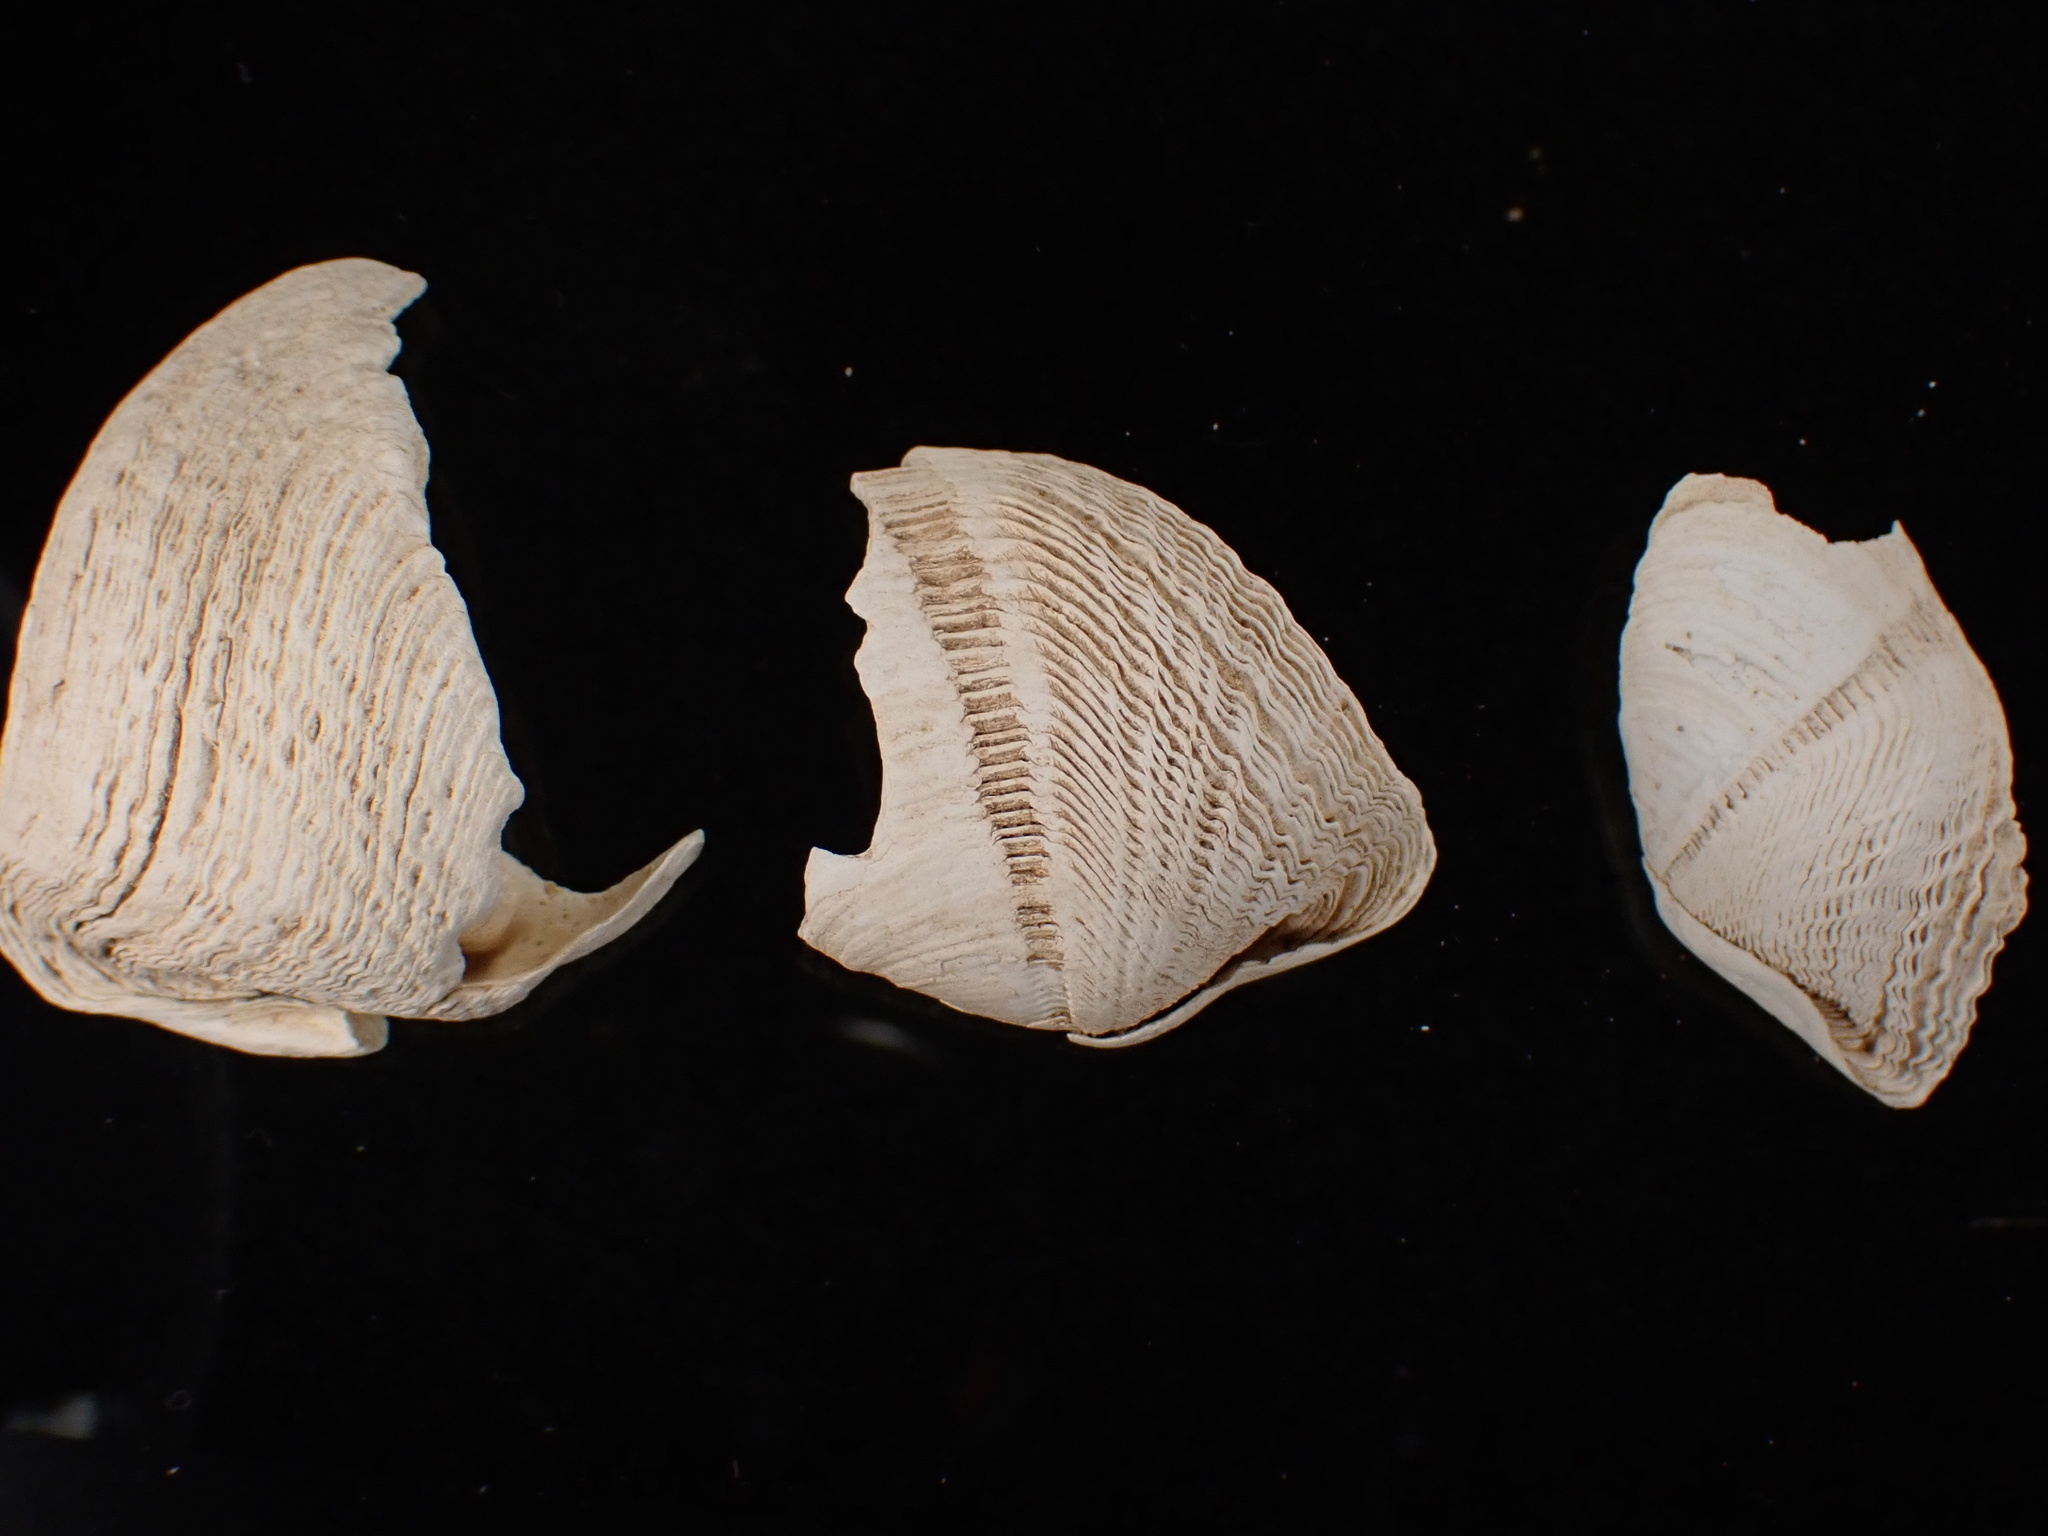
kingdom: Animalia
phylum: Mollusca
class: Bivalvia
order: Myida
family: Pholadidae
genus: Zirfaea
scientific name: Zirfaea crispata
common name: Oval piddock
